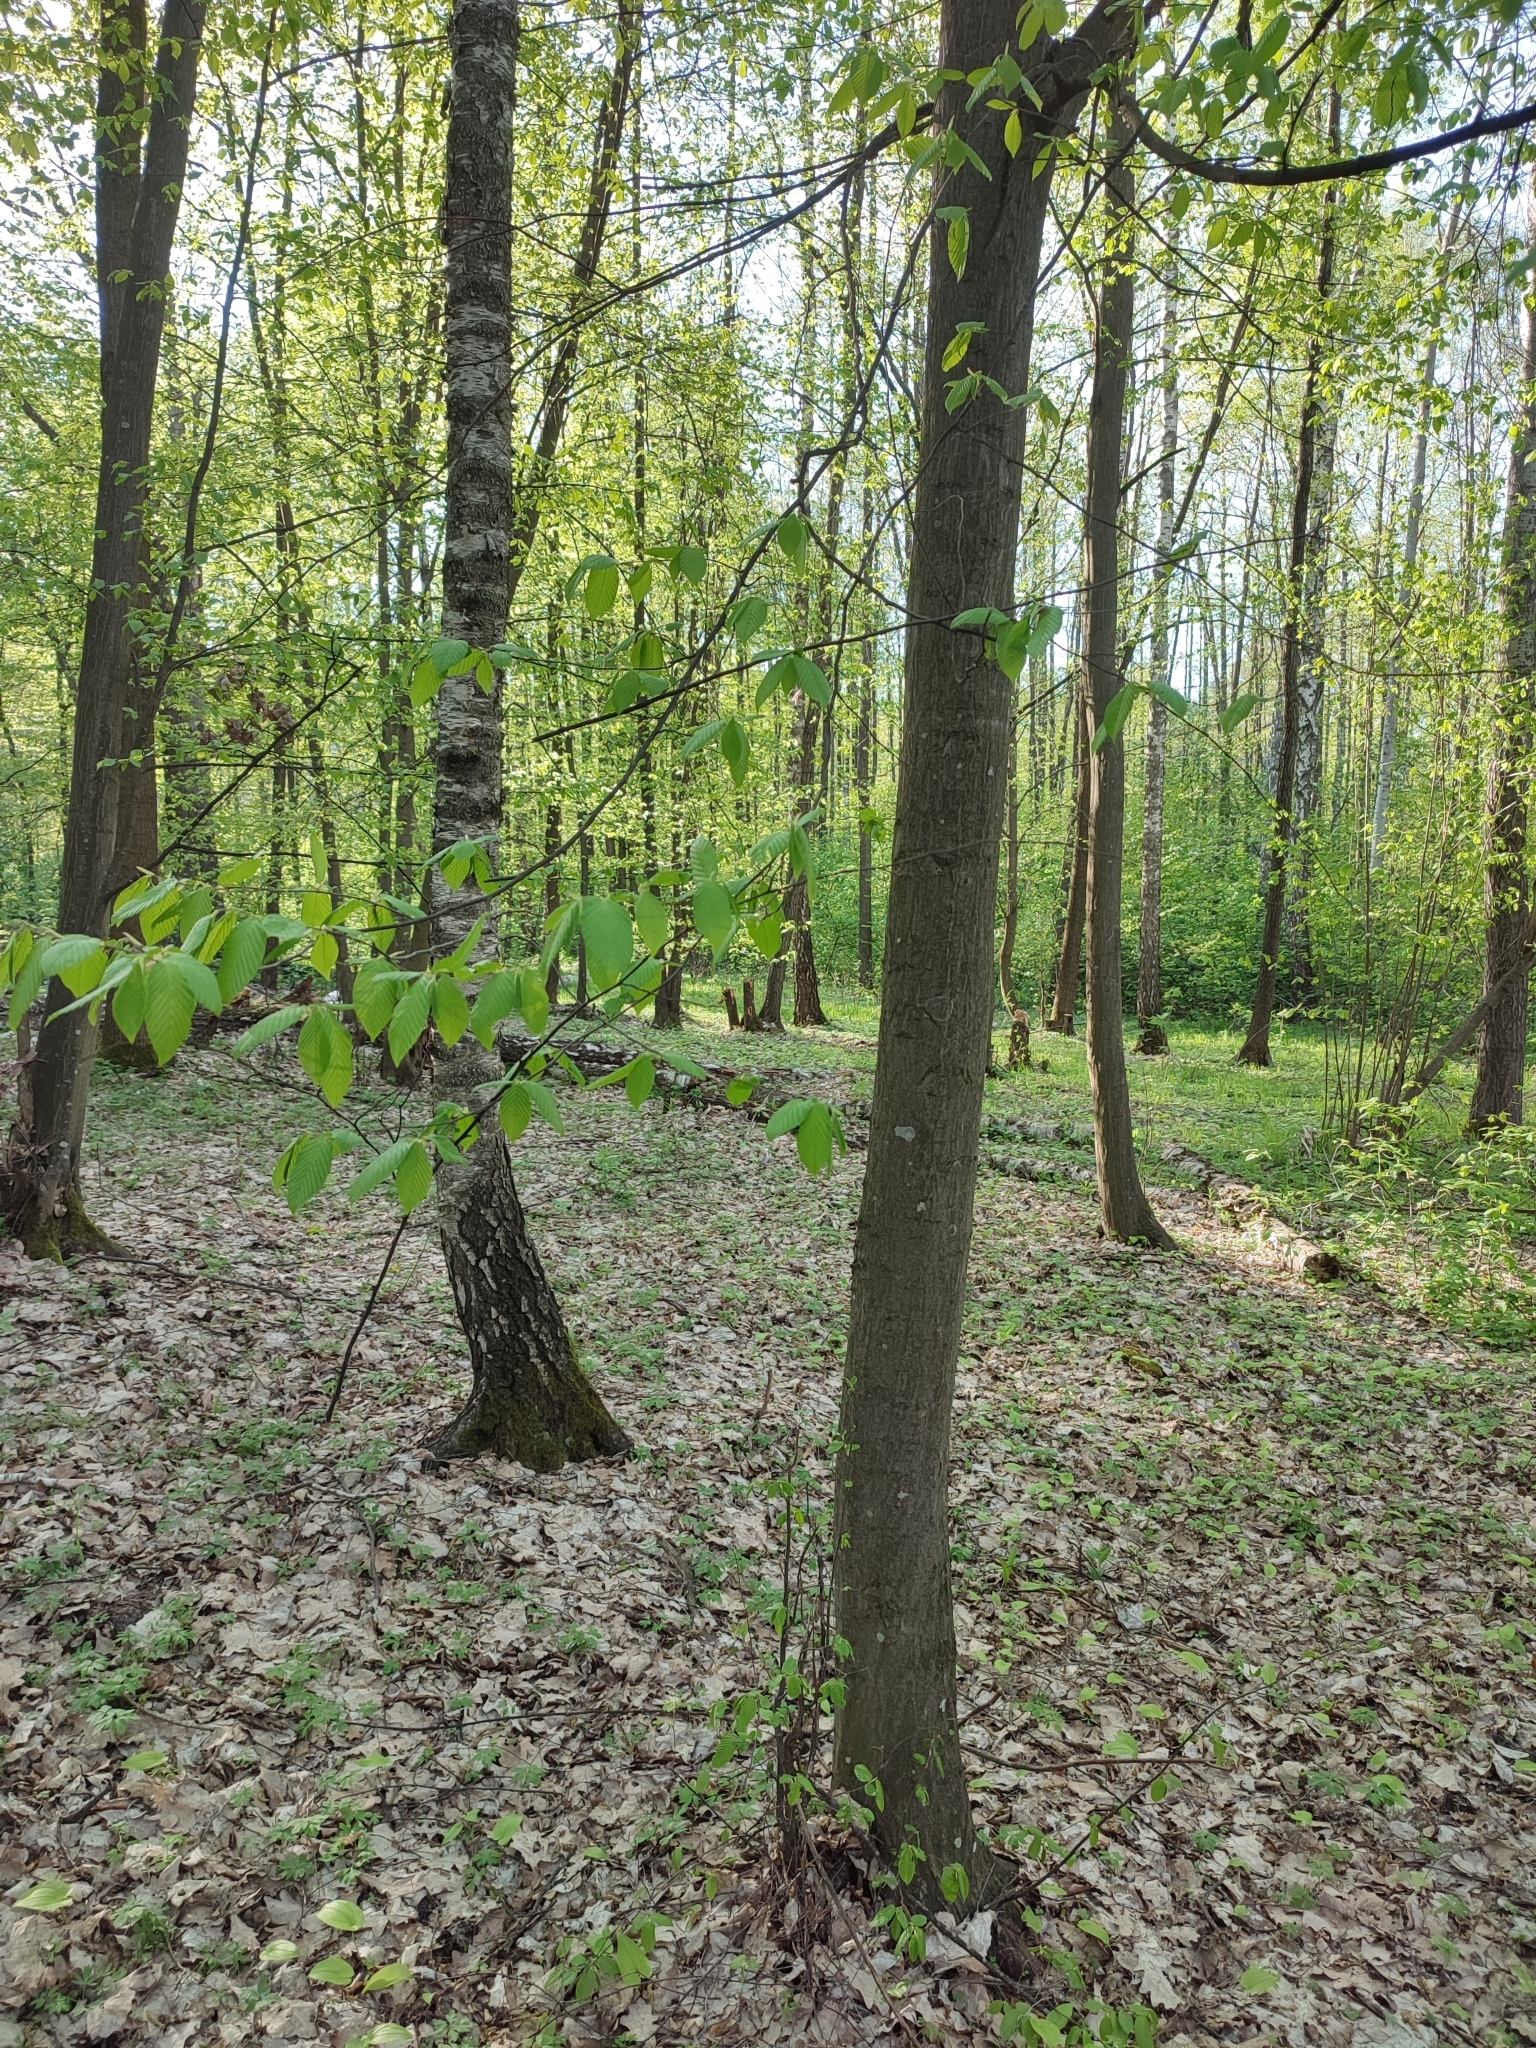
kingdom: Plantae
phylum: Tracheophyta
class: Magnoliopsida
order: Fagales
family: Betulaceae
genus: Carpinus
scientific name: Carpinus betulus
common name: Hornbeam
